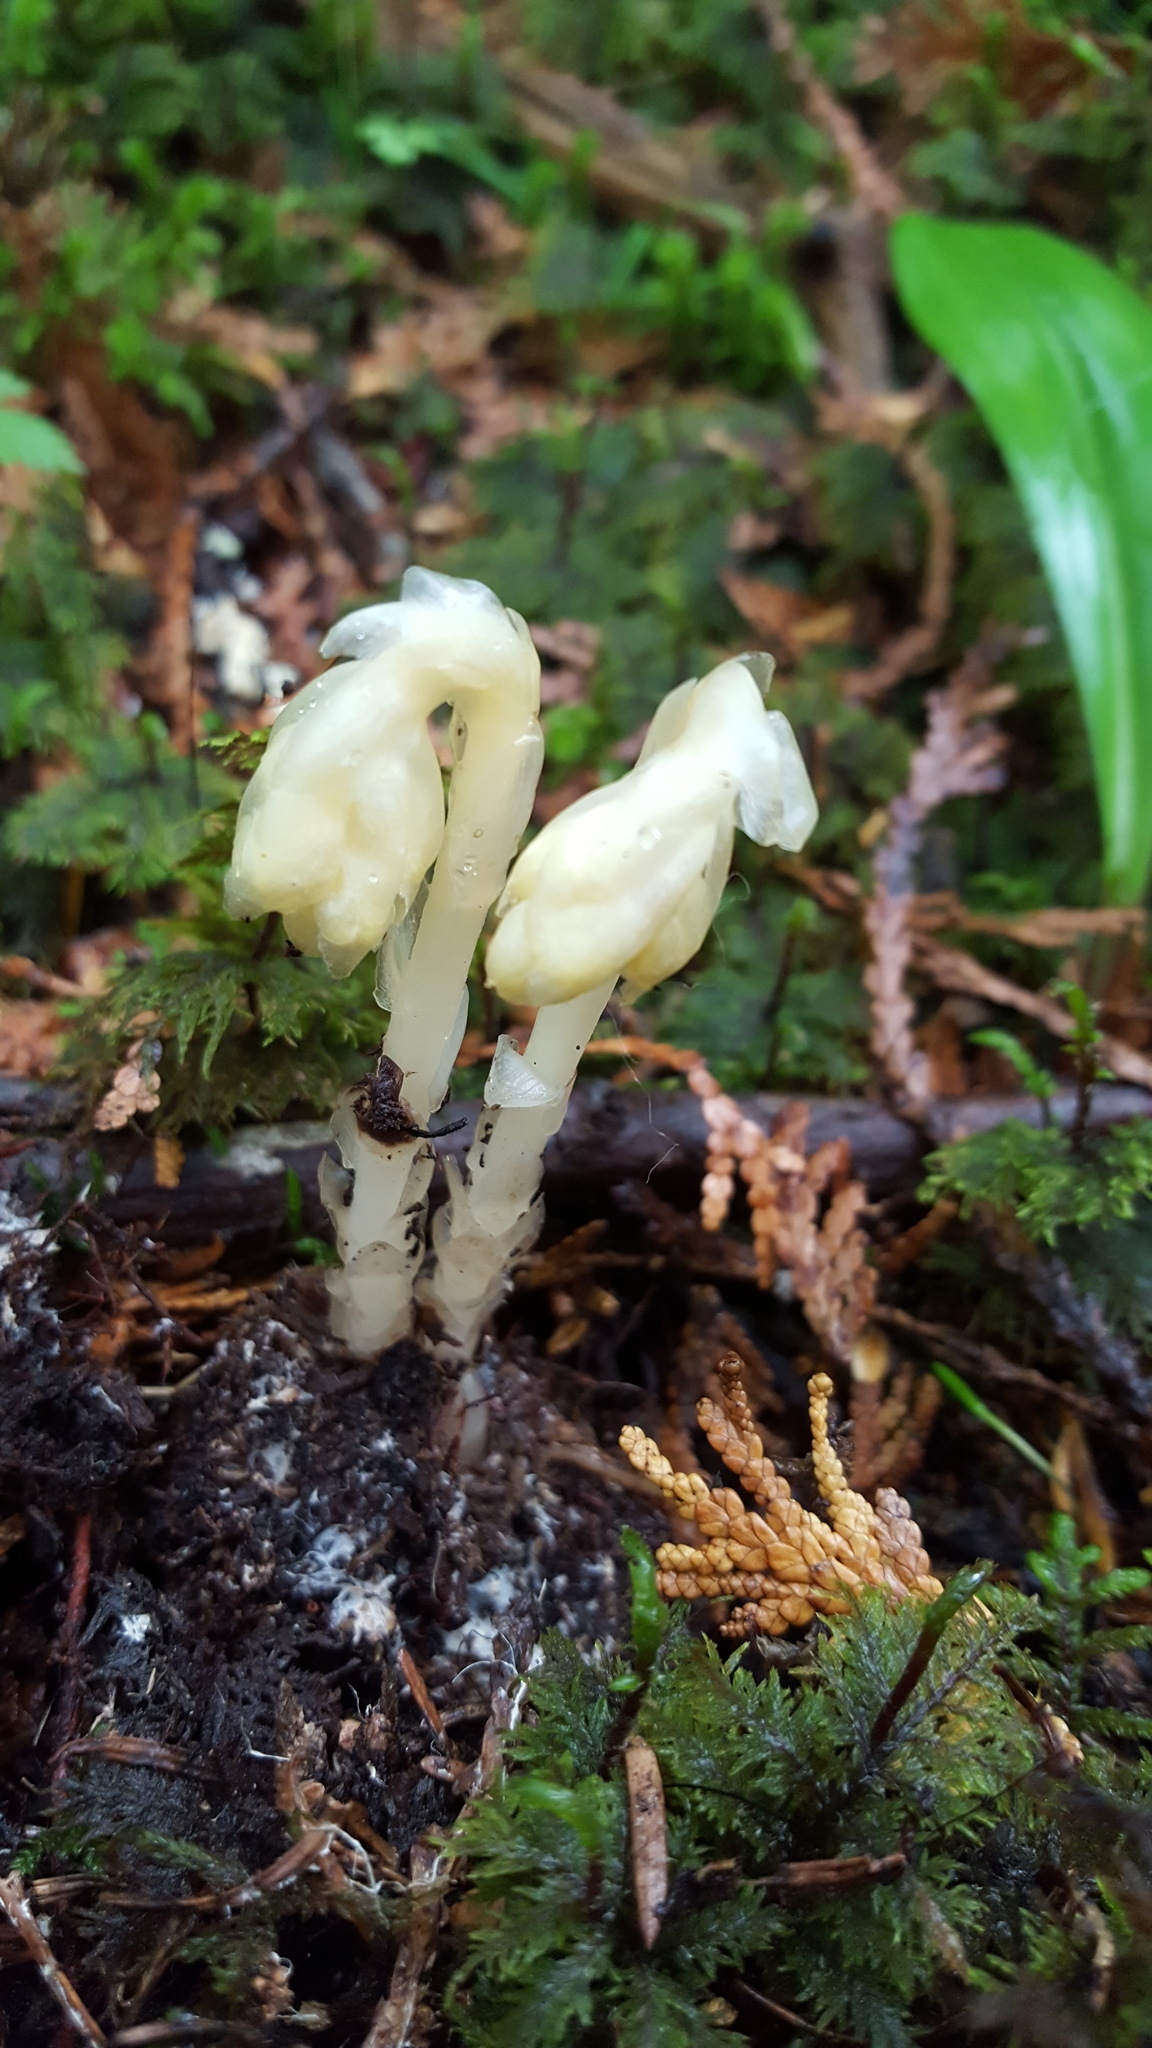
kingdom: Plantae
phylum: Tracheophyta
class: Magnoliopsida
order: Ericales
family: Ericaceae
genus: Hypopitys
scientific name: Hypopitys monotropa
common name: Yellow bird's-nest
